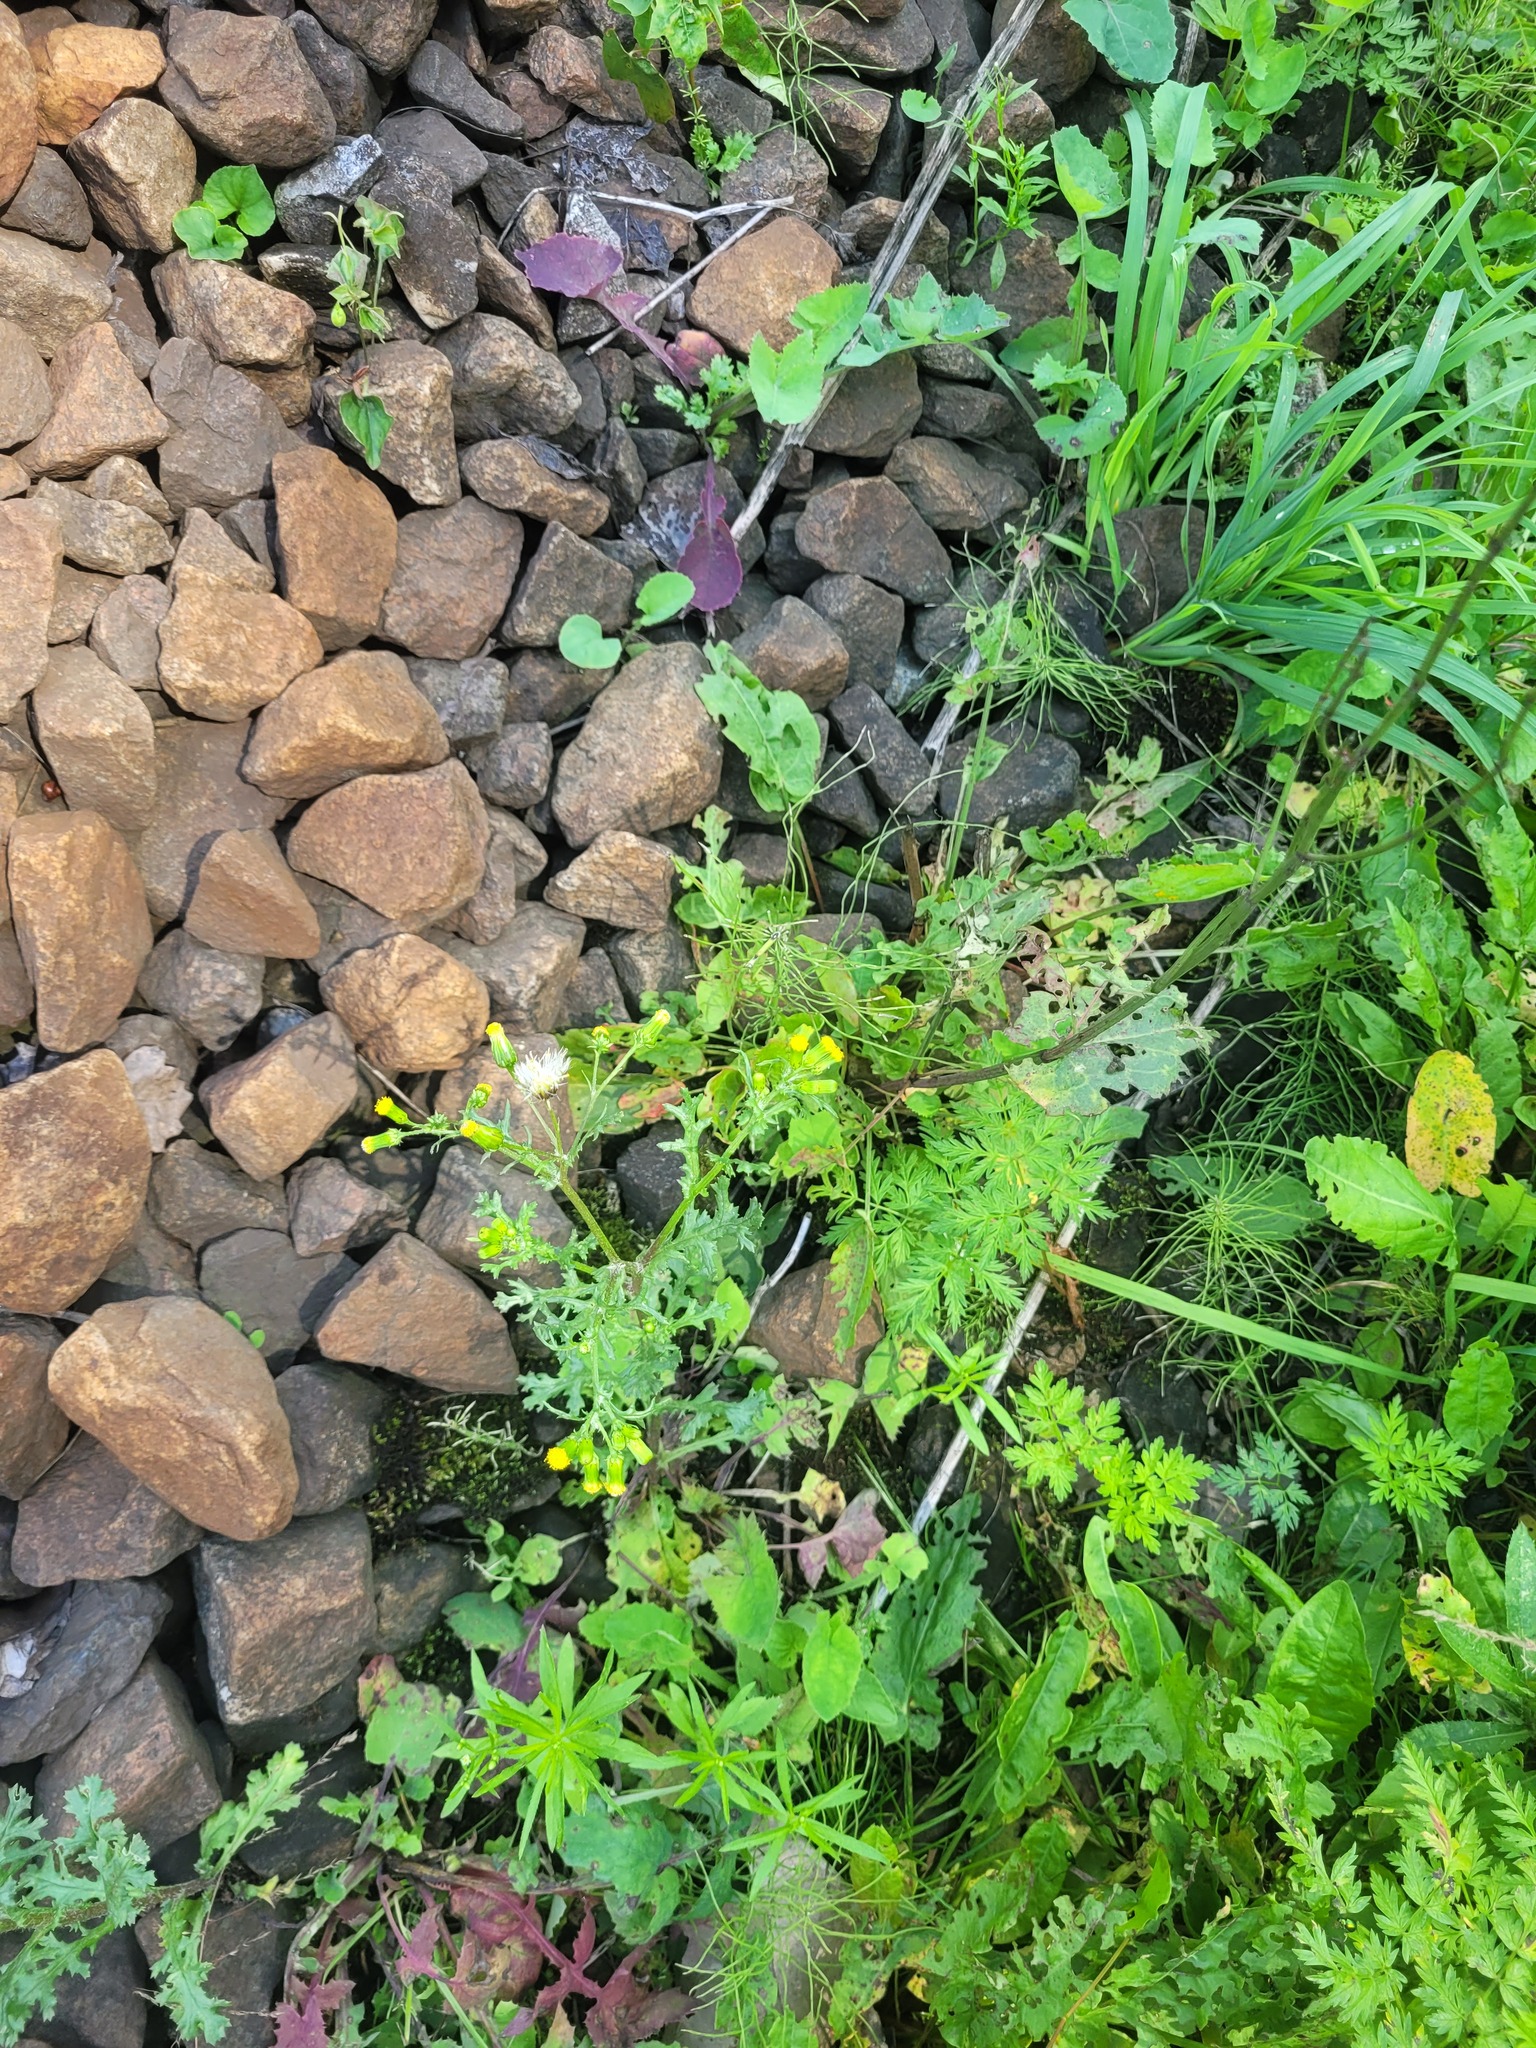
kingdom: Plantae
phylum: Tracheophyta
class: Magnoliopsida
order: Asterales
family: Asteraceae
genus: Senecio
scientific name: Senecio vulgaris
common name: Old-man-in-the-spring
